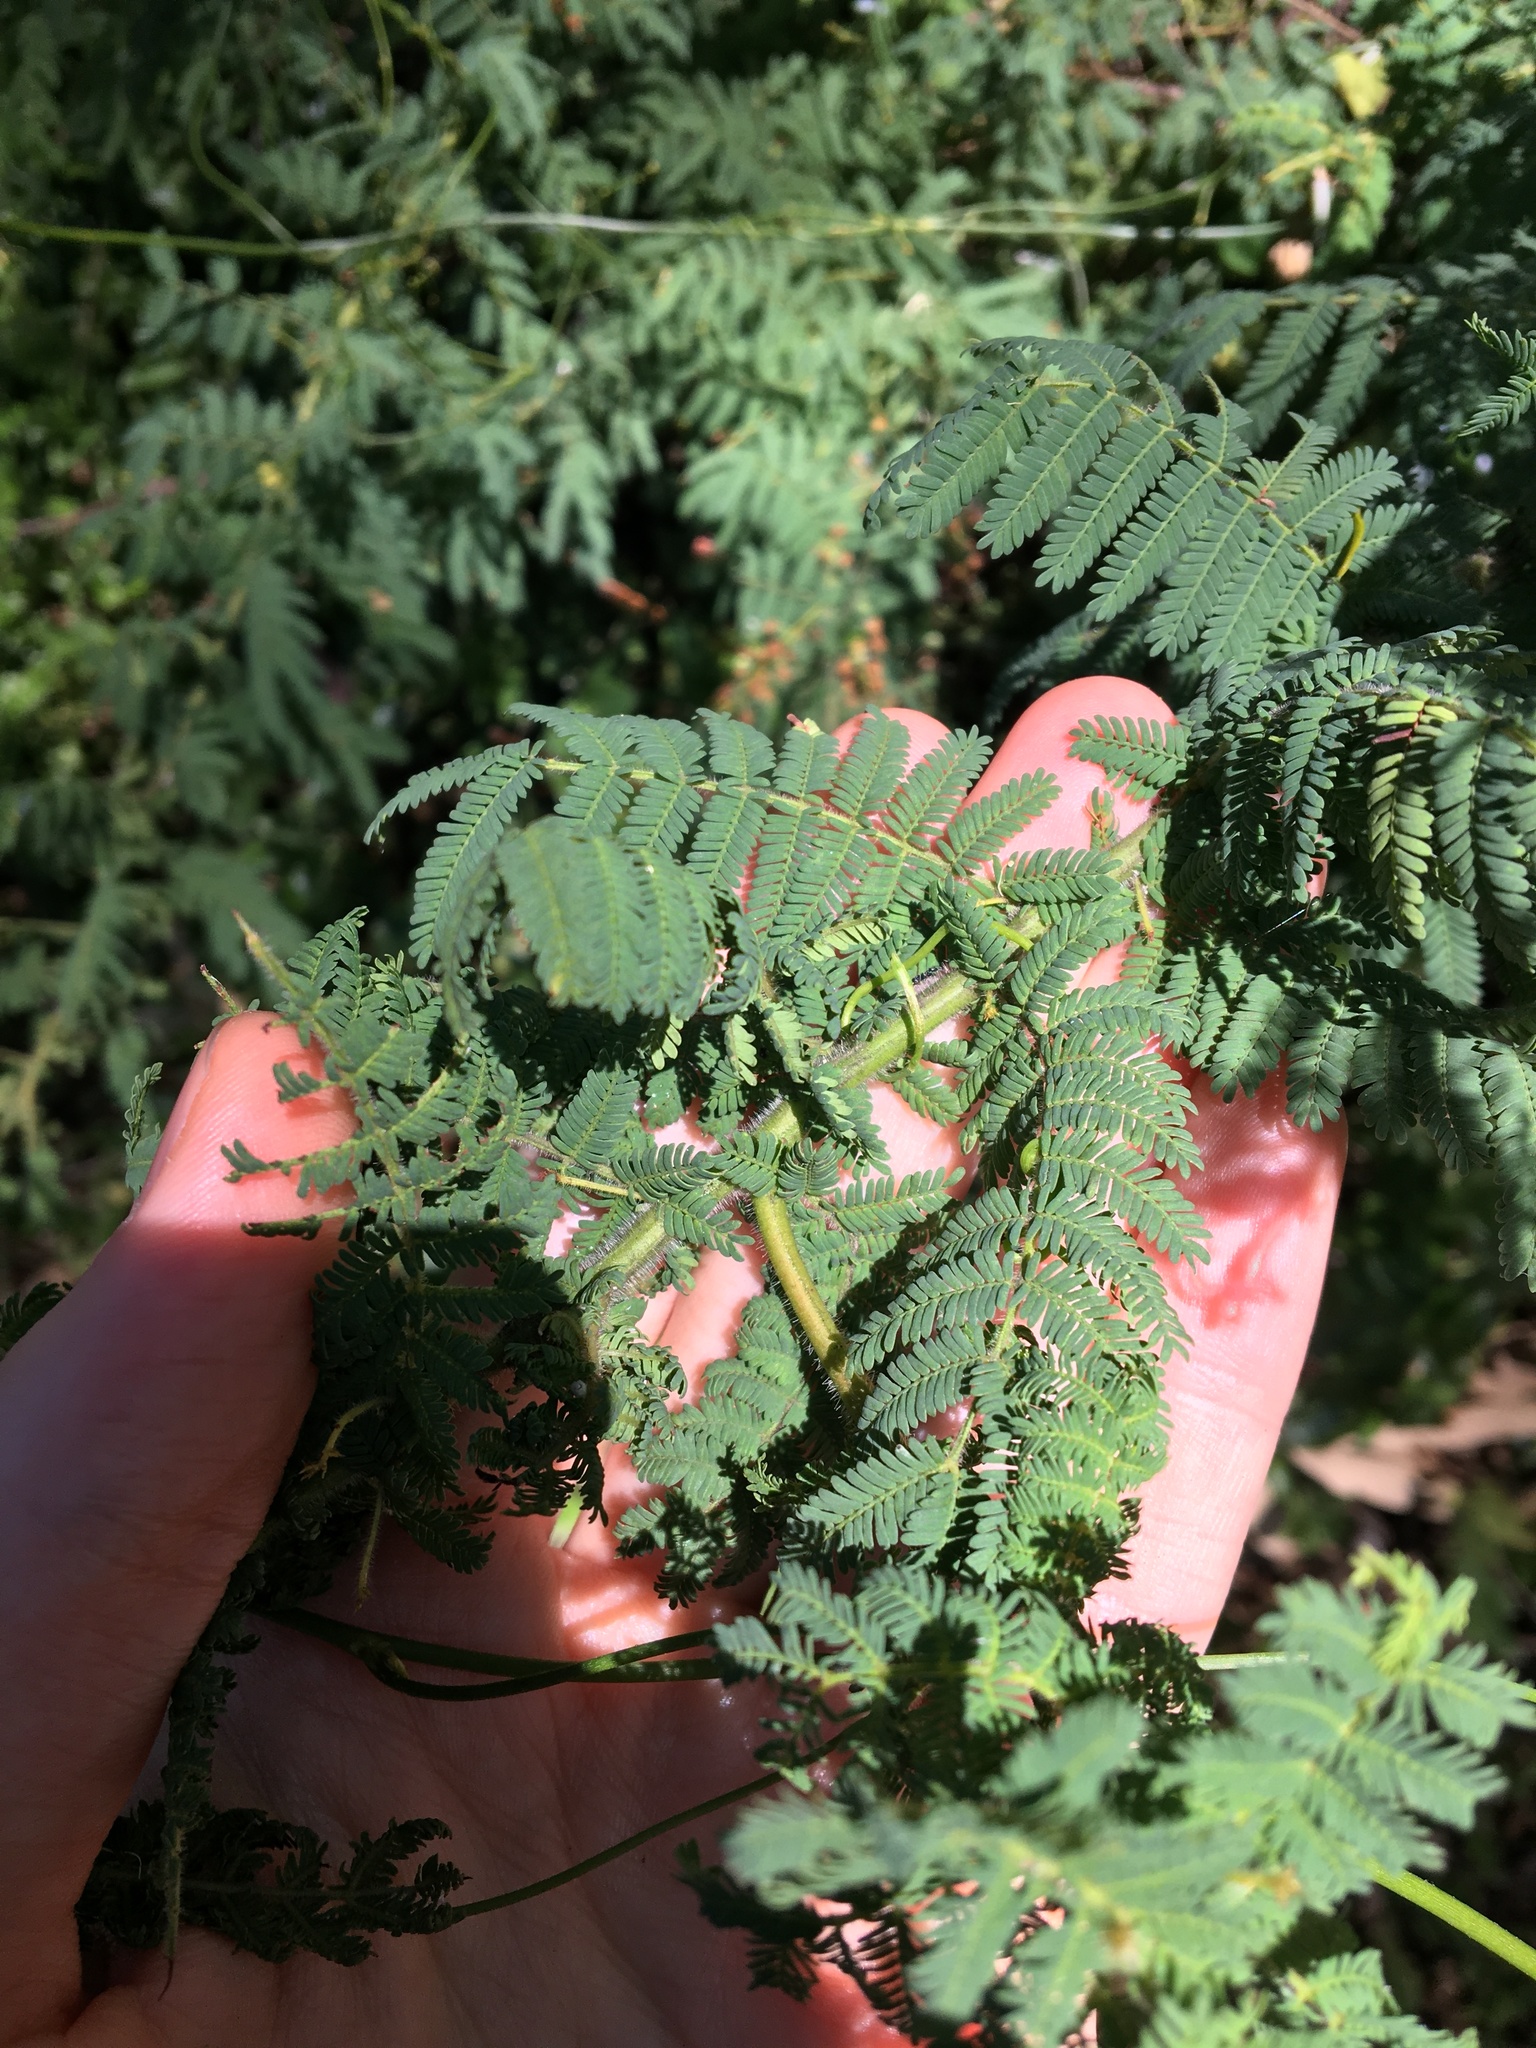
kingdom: Plantae
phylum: Tracheophyta
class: Magnoliopsida
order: Fabales
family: Fabaceae
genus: Acacia
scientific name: Acacia pubescens
